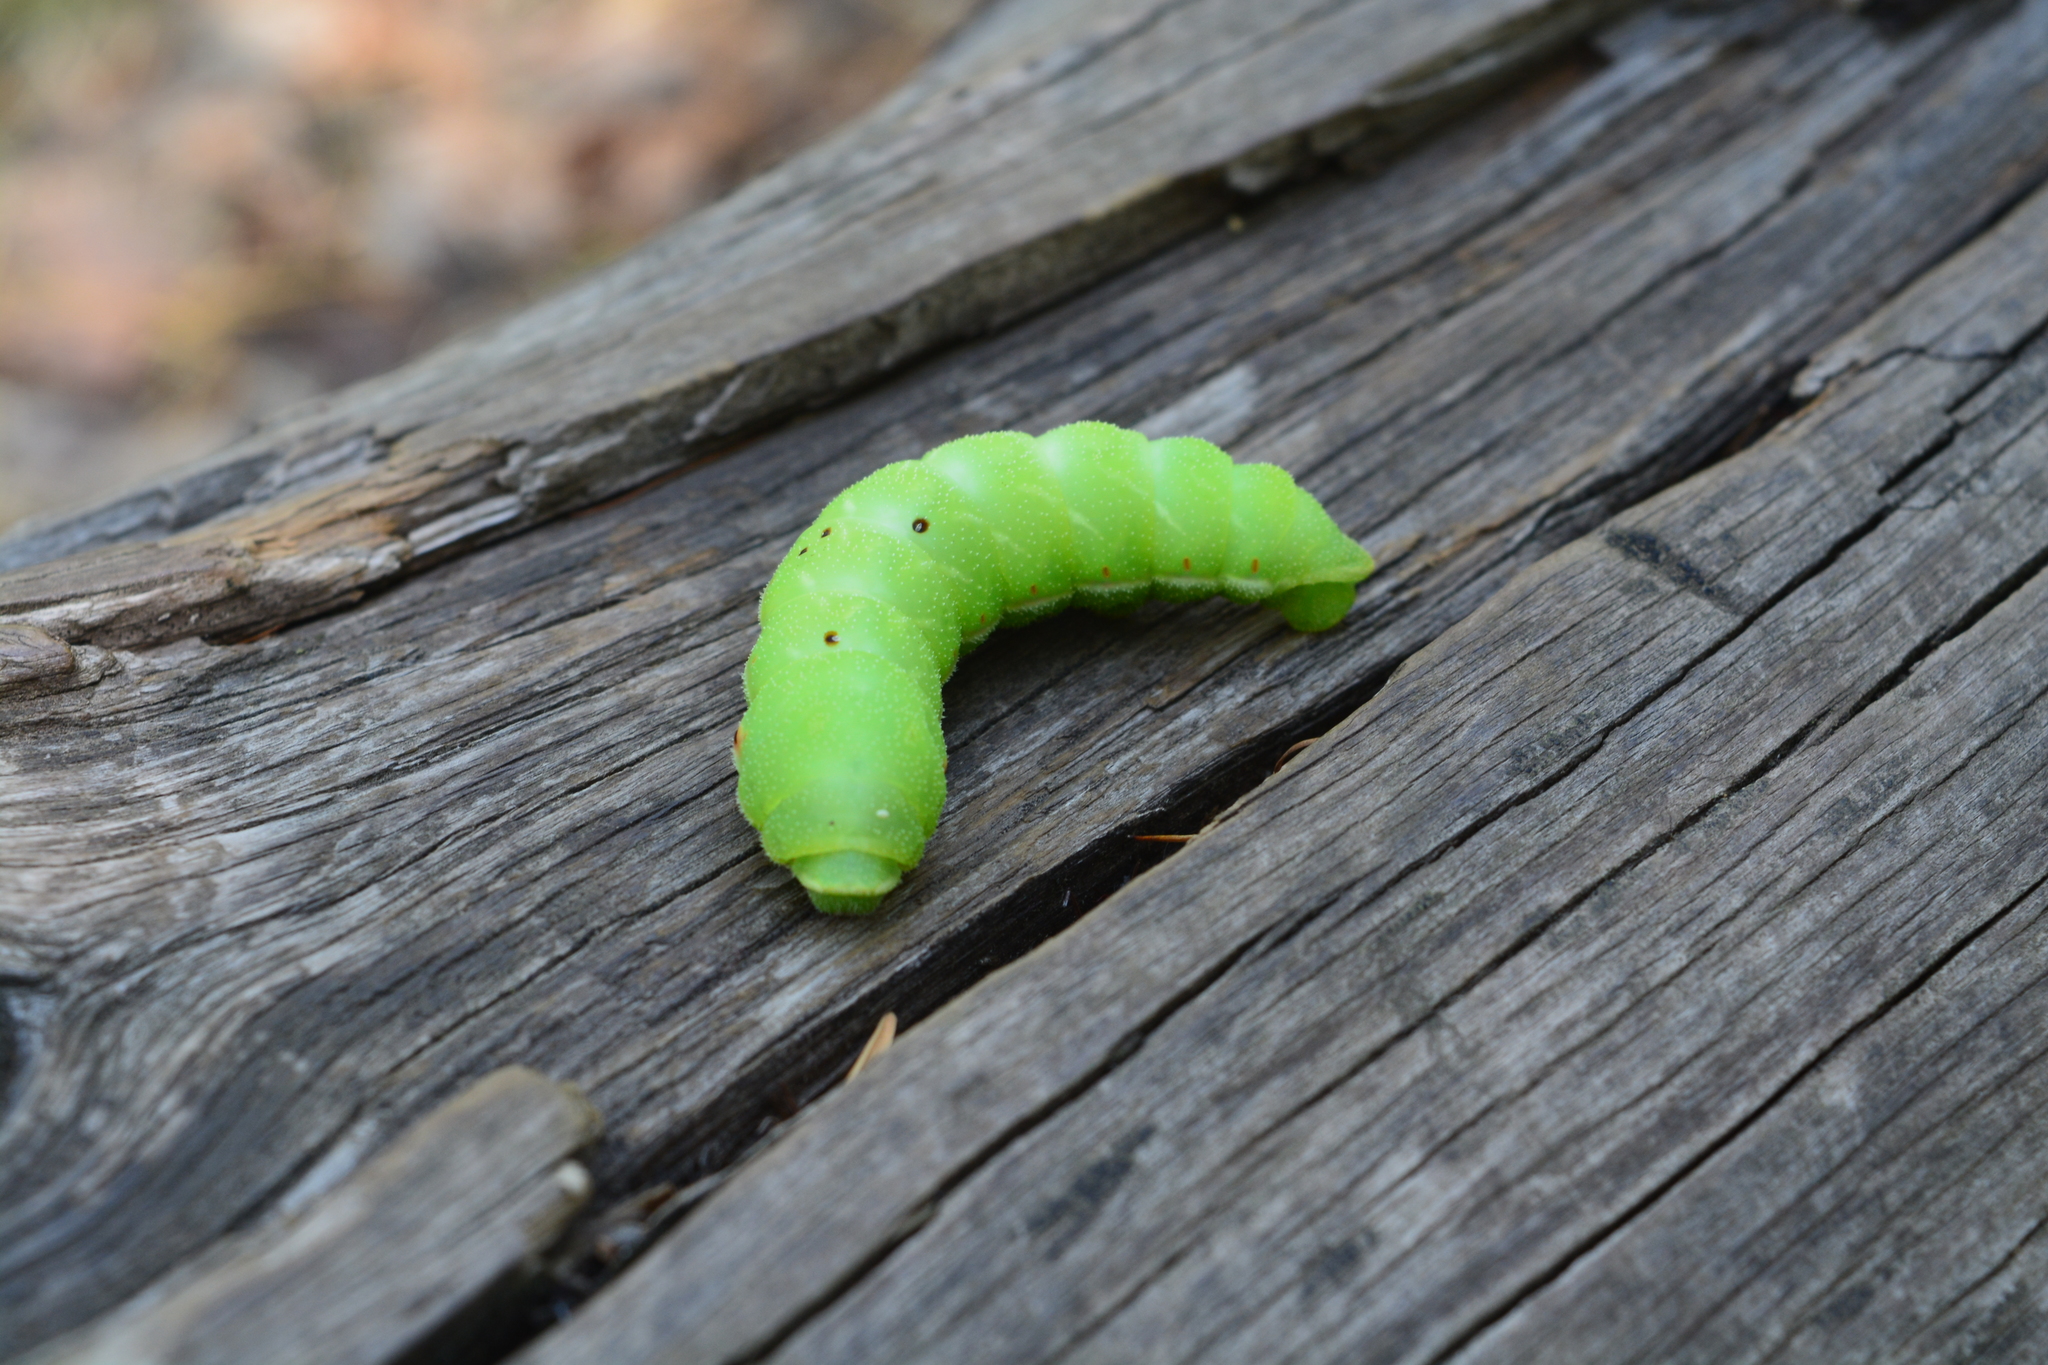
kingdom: Animalia
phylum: Arthropoda
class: Insecta
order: Lepidoptera
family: Saturniidae
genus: Aglia
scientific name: Aglia tau
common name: Tau emperor
